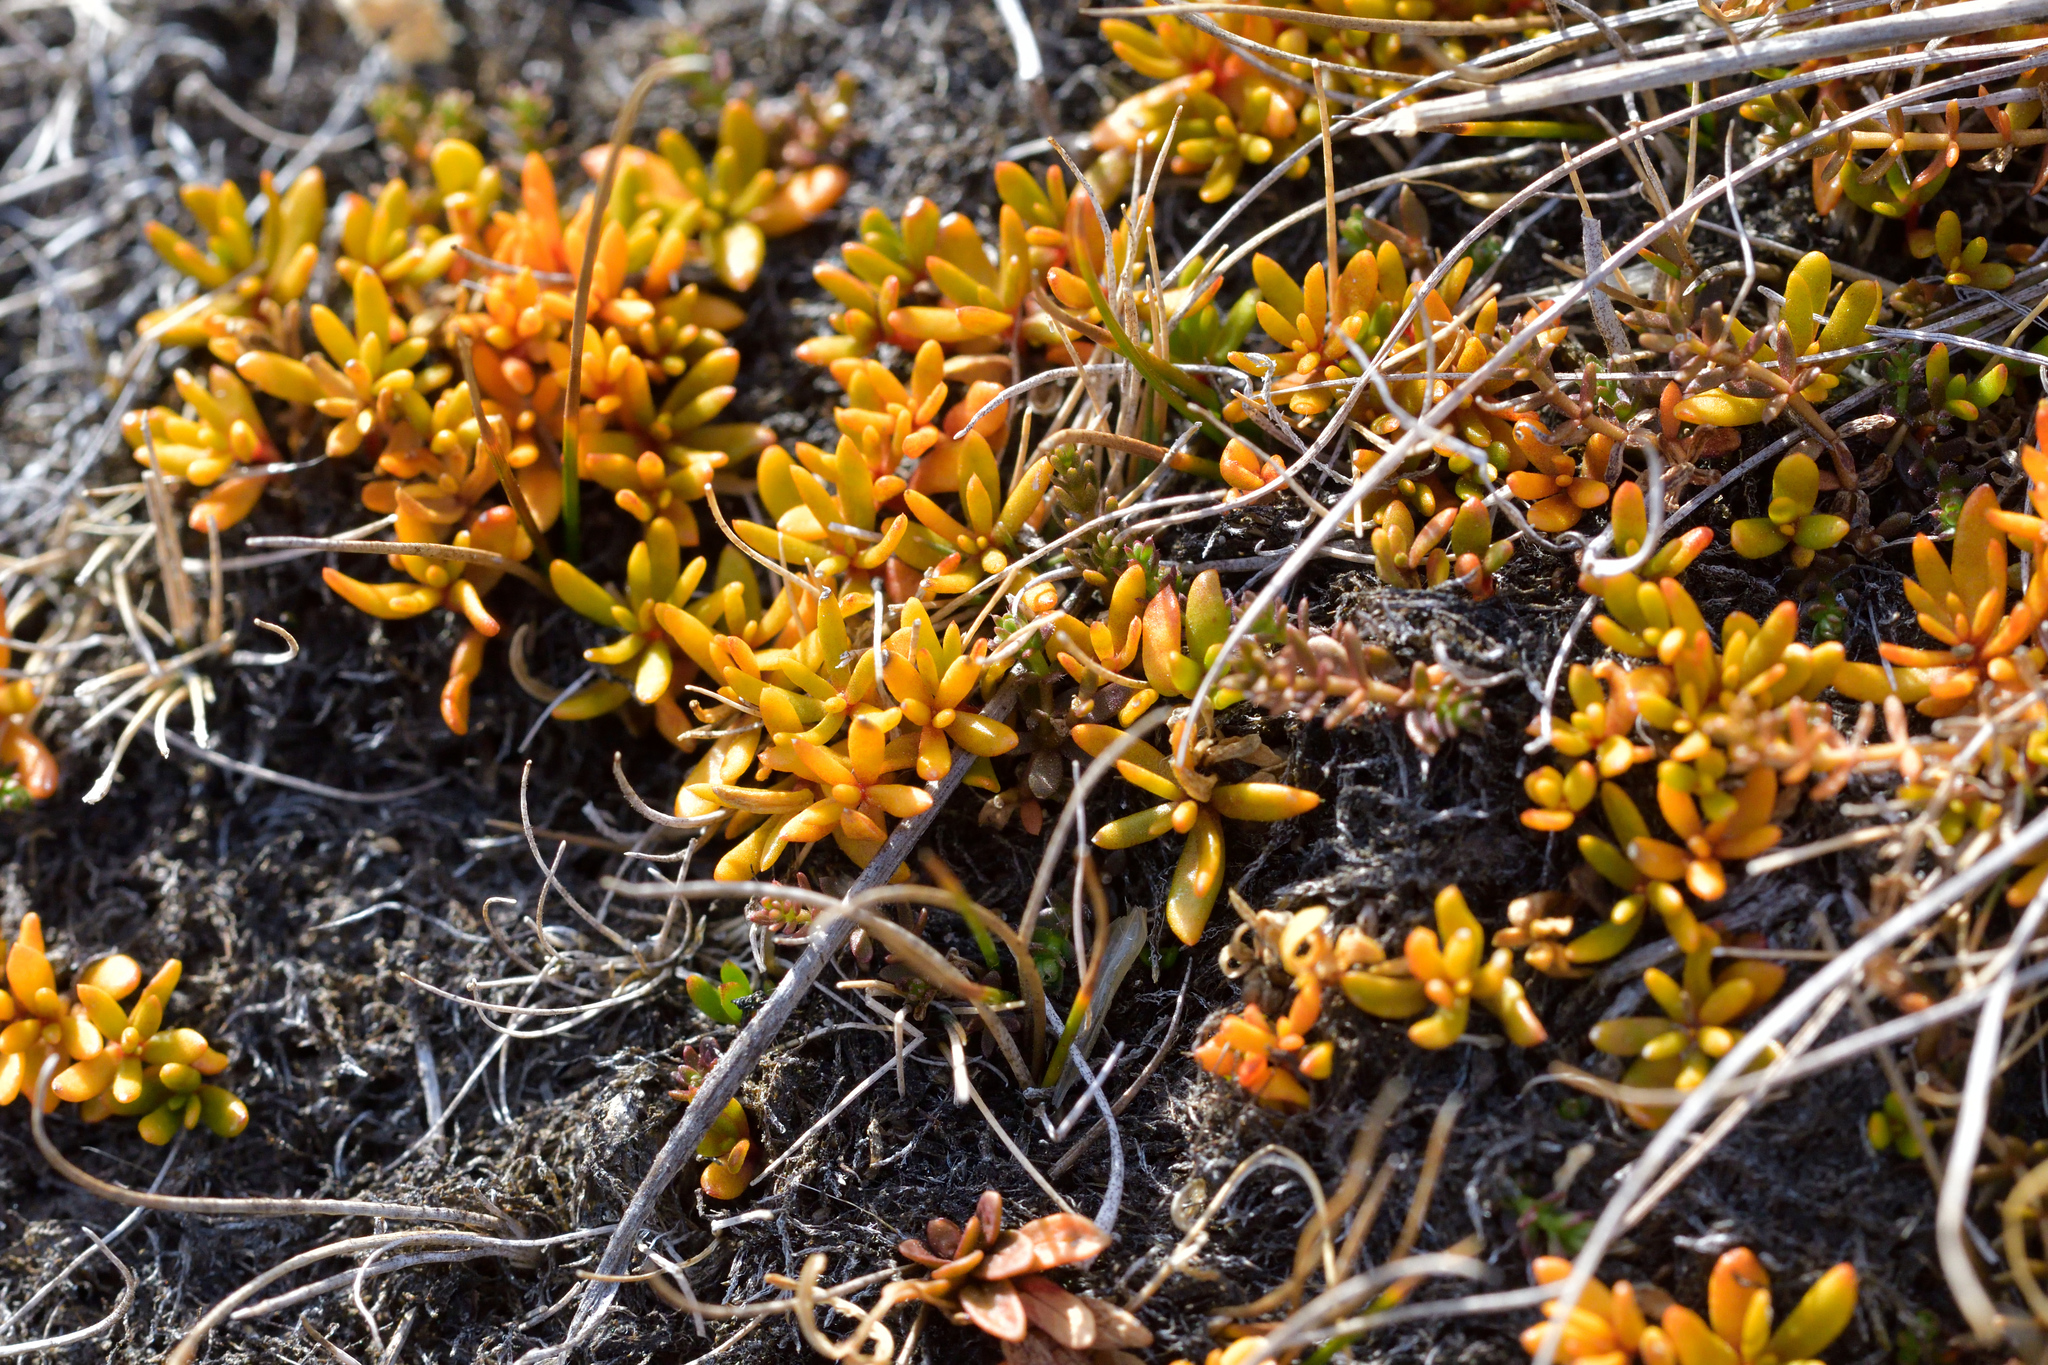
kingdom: Plantae
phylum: Tracheophyta
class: Magnoliopsida
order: Celastrales
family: Celastraceae
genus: Stackhousia
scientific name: Stackhousia minima
